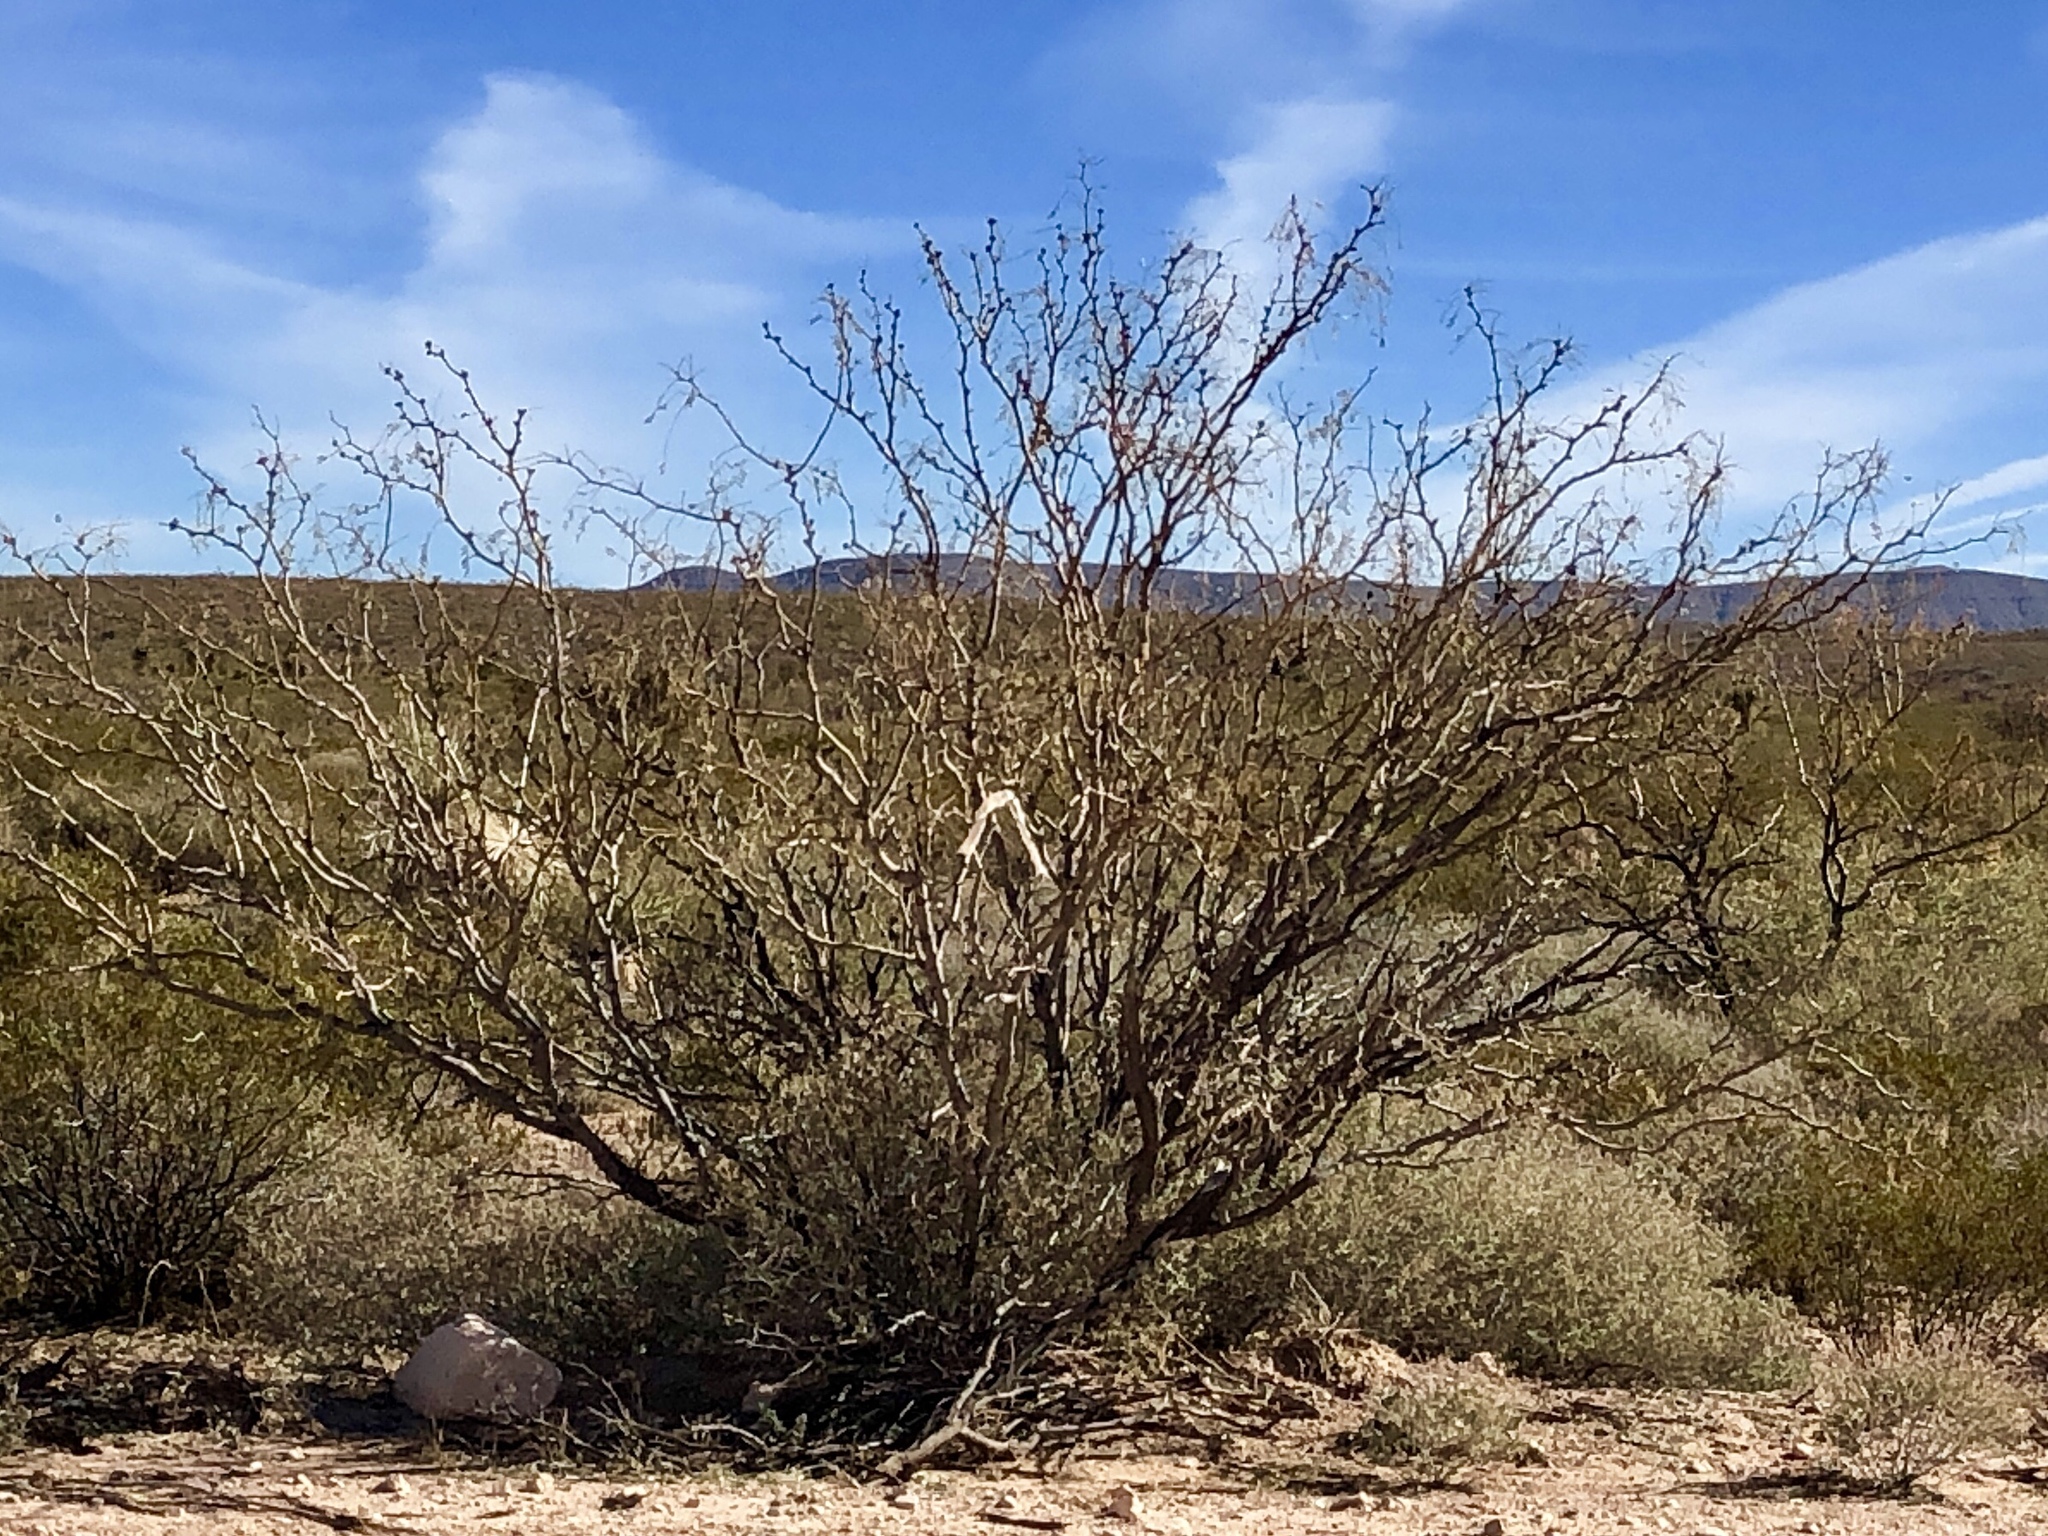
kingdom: Plantae
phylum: Tracheophyta
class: Magnoliopsida
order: Fabales
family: Fabaceae
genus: Prosopis
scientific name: Prosopis glandulosa
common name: Honey mesquite
